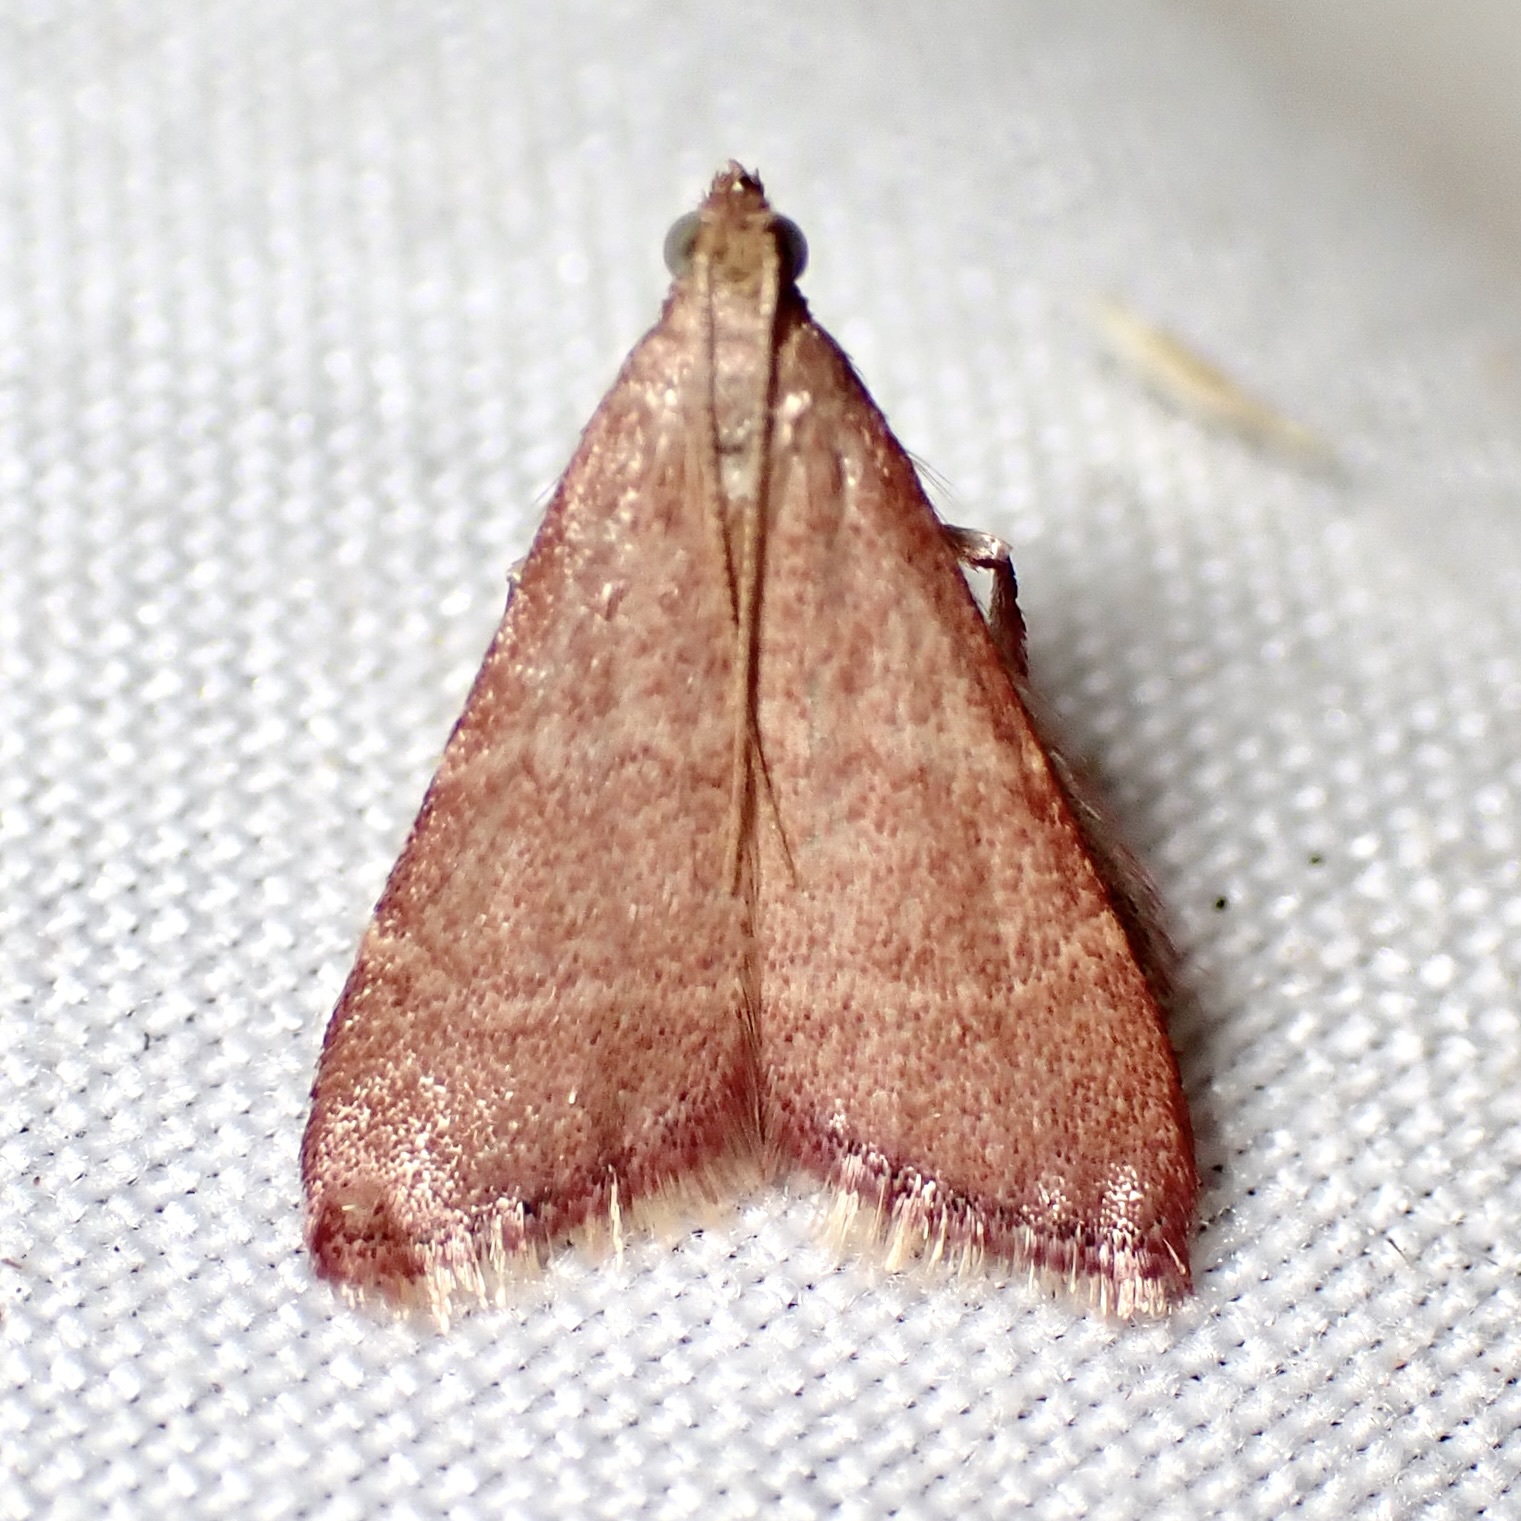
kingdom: Animalia
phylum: Arthropoda
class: Insecta
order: Lepidoptera
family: Pyralidae
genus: Arta
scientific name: Arta epicoenalis
